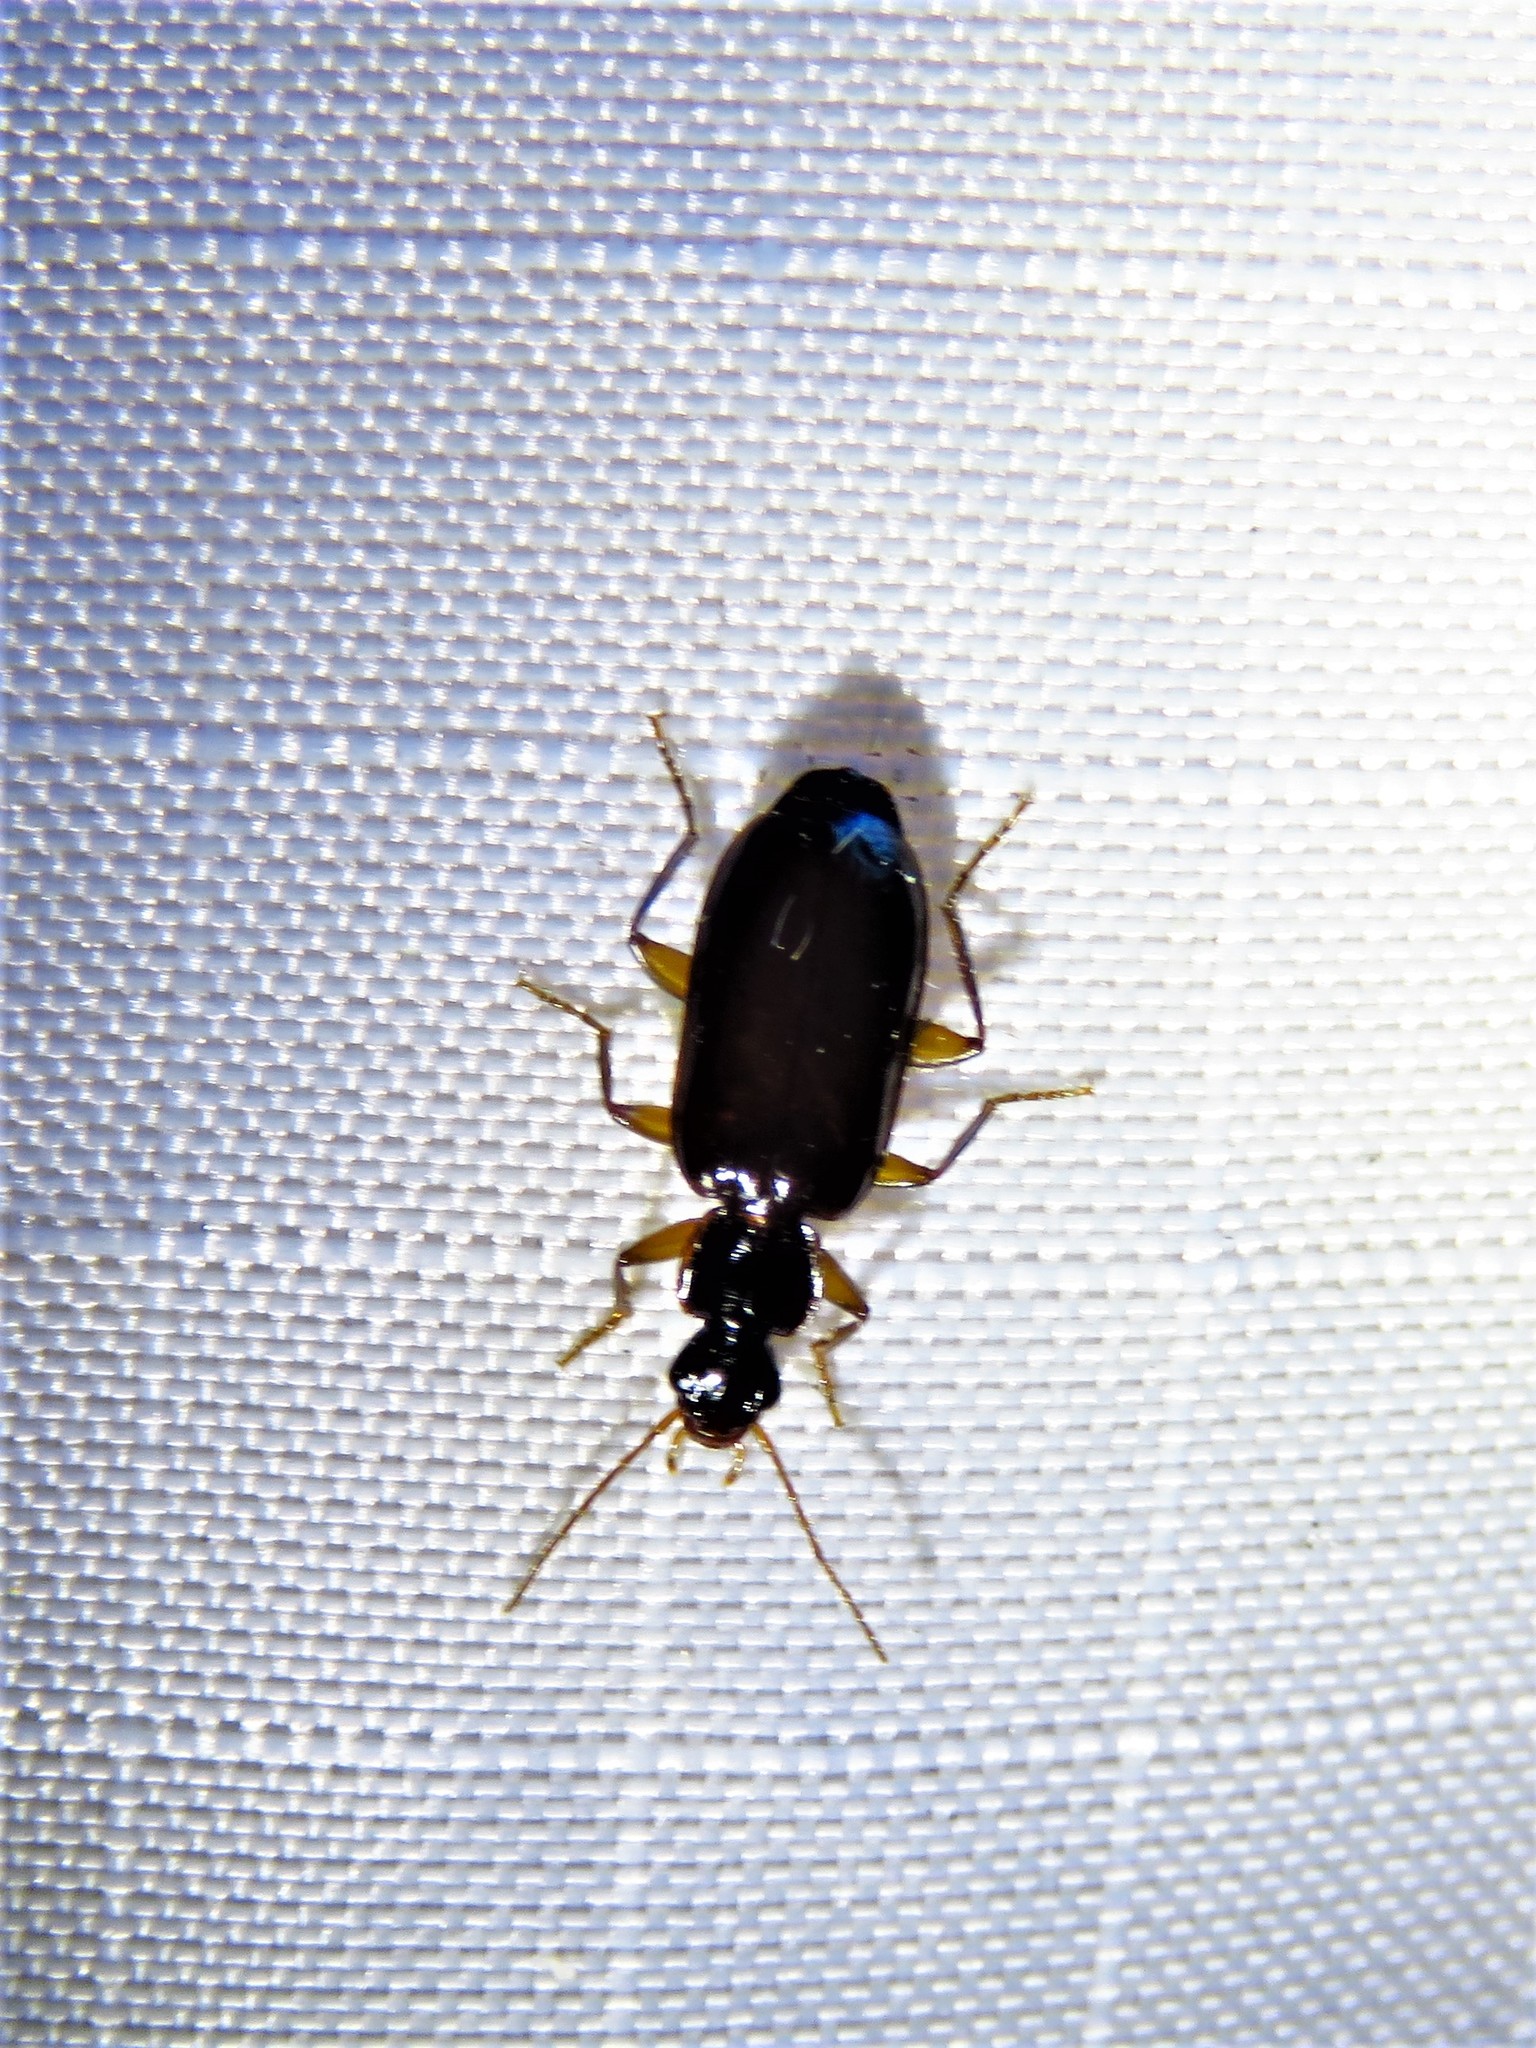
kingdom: Animalia
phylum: Arthropoda
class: Insecta
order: Coleoptera
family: Carabidae
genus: Dromius
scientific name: Dromius piceus
